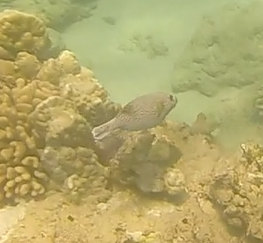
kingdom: Animalia
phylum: Chordata
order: Tetraodontiformes
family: Tetraodontidae
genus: Arothron
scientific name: Arothron meleagris
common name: Guinea-fowl pufferfish
